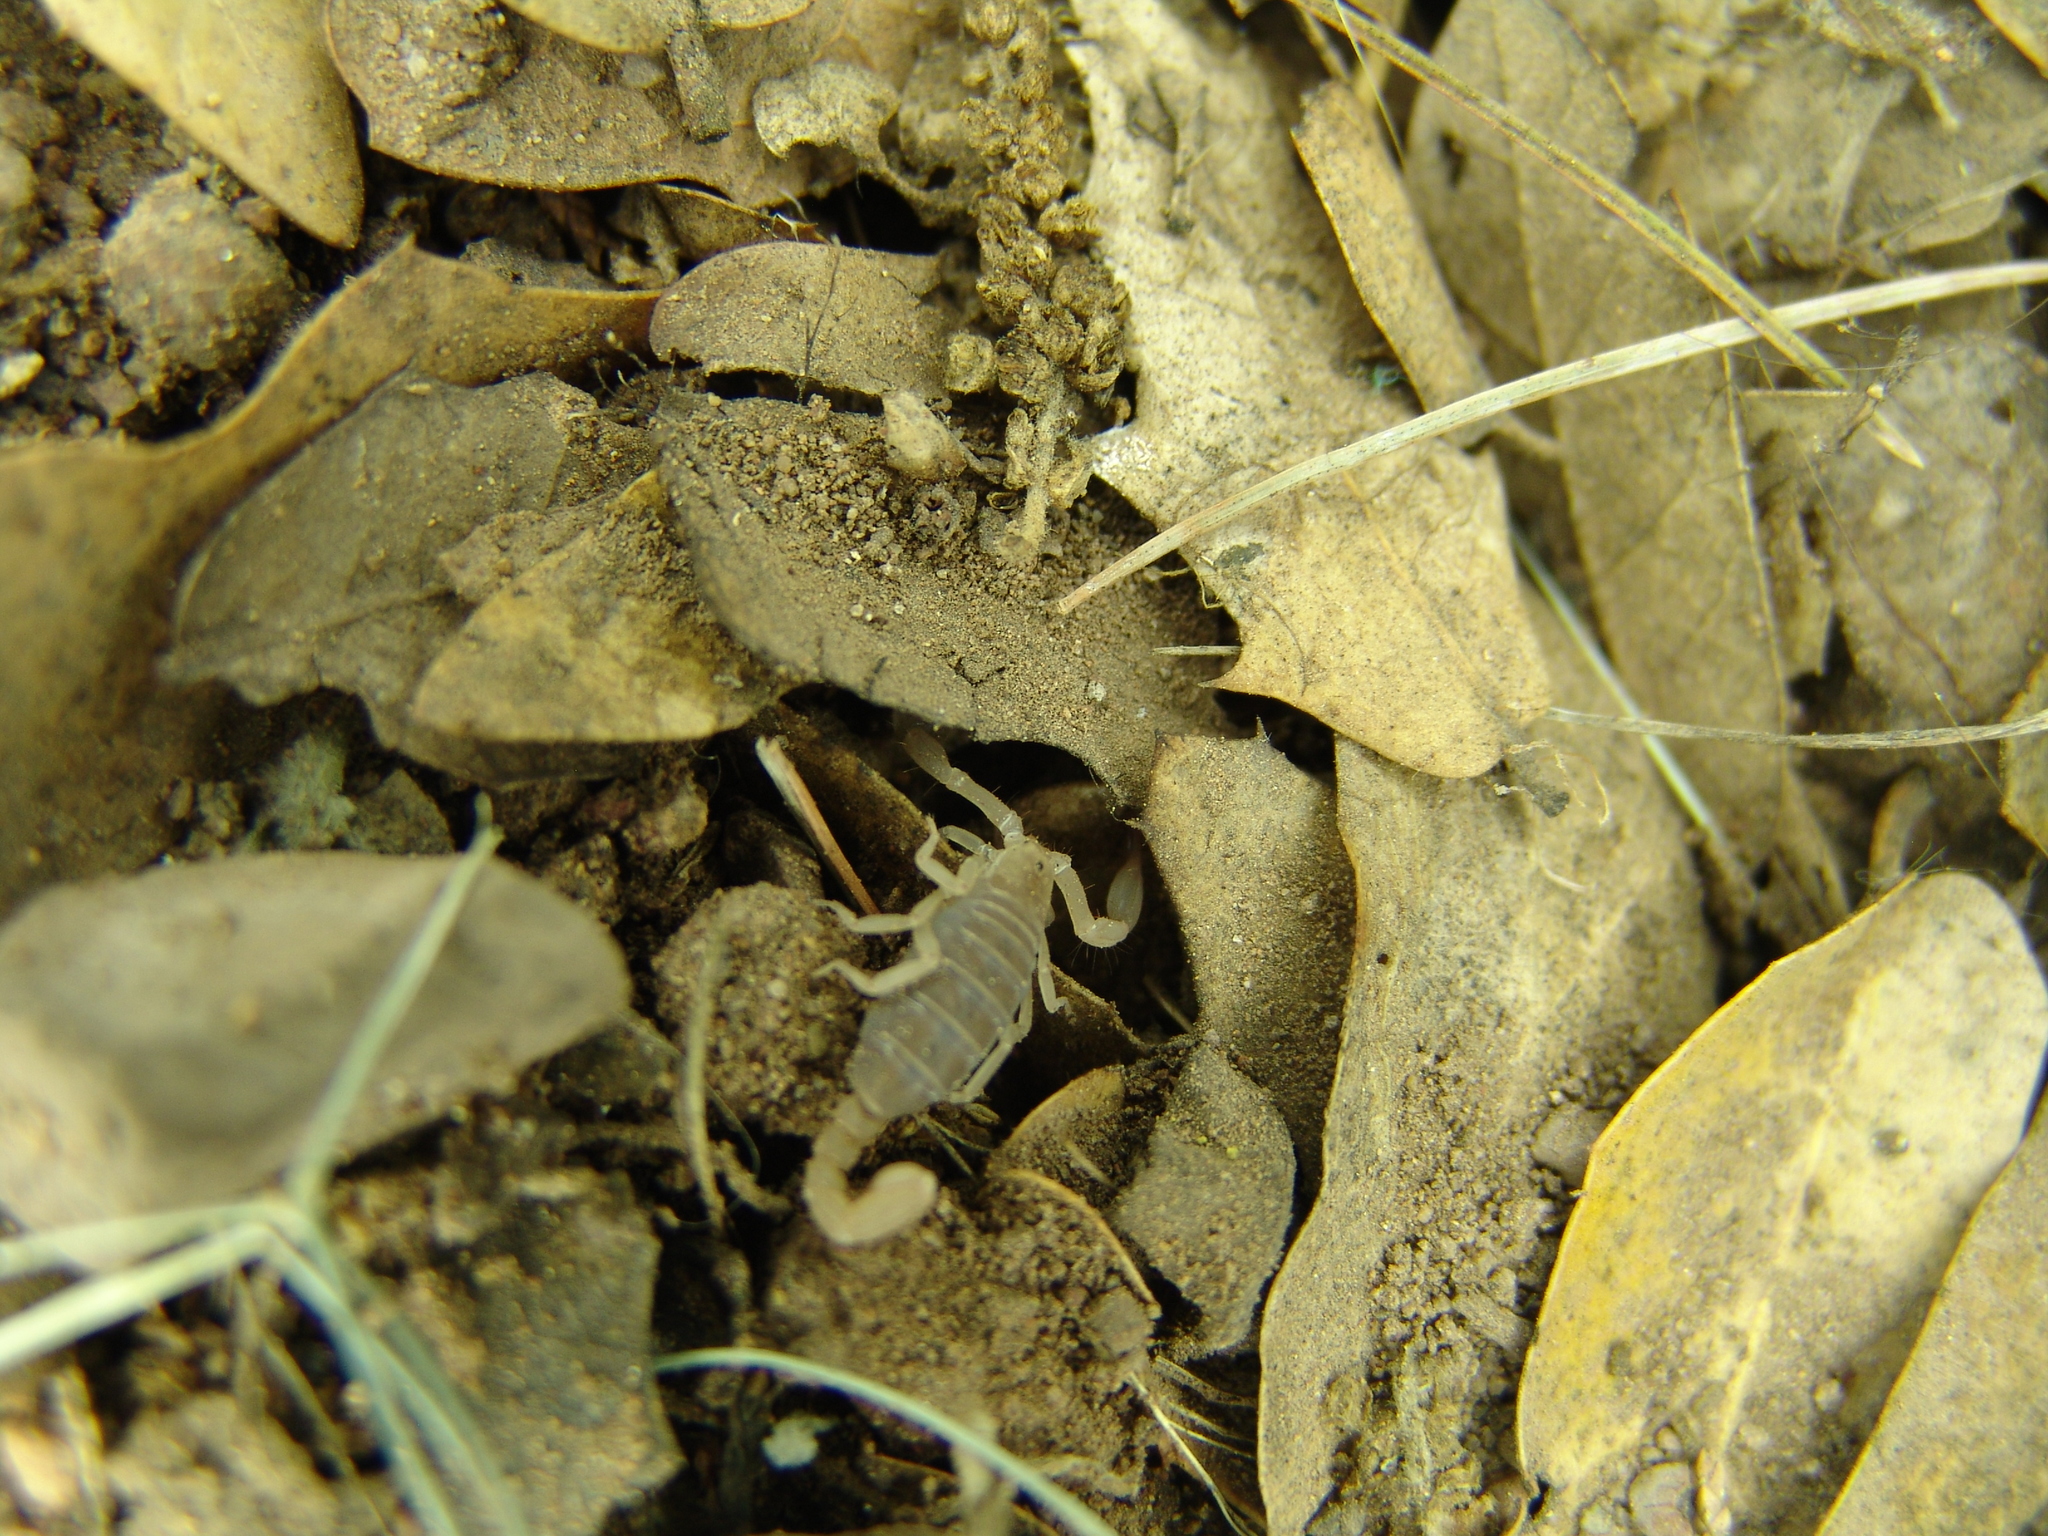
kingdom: Animalia
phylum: Arthropoda
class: Arachnida
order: Scorpiones
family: Vaejovidae
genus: Pseudouroctonus
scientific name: Pseudouroctonus apacheanus
